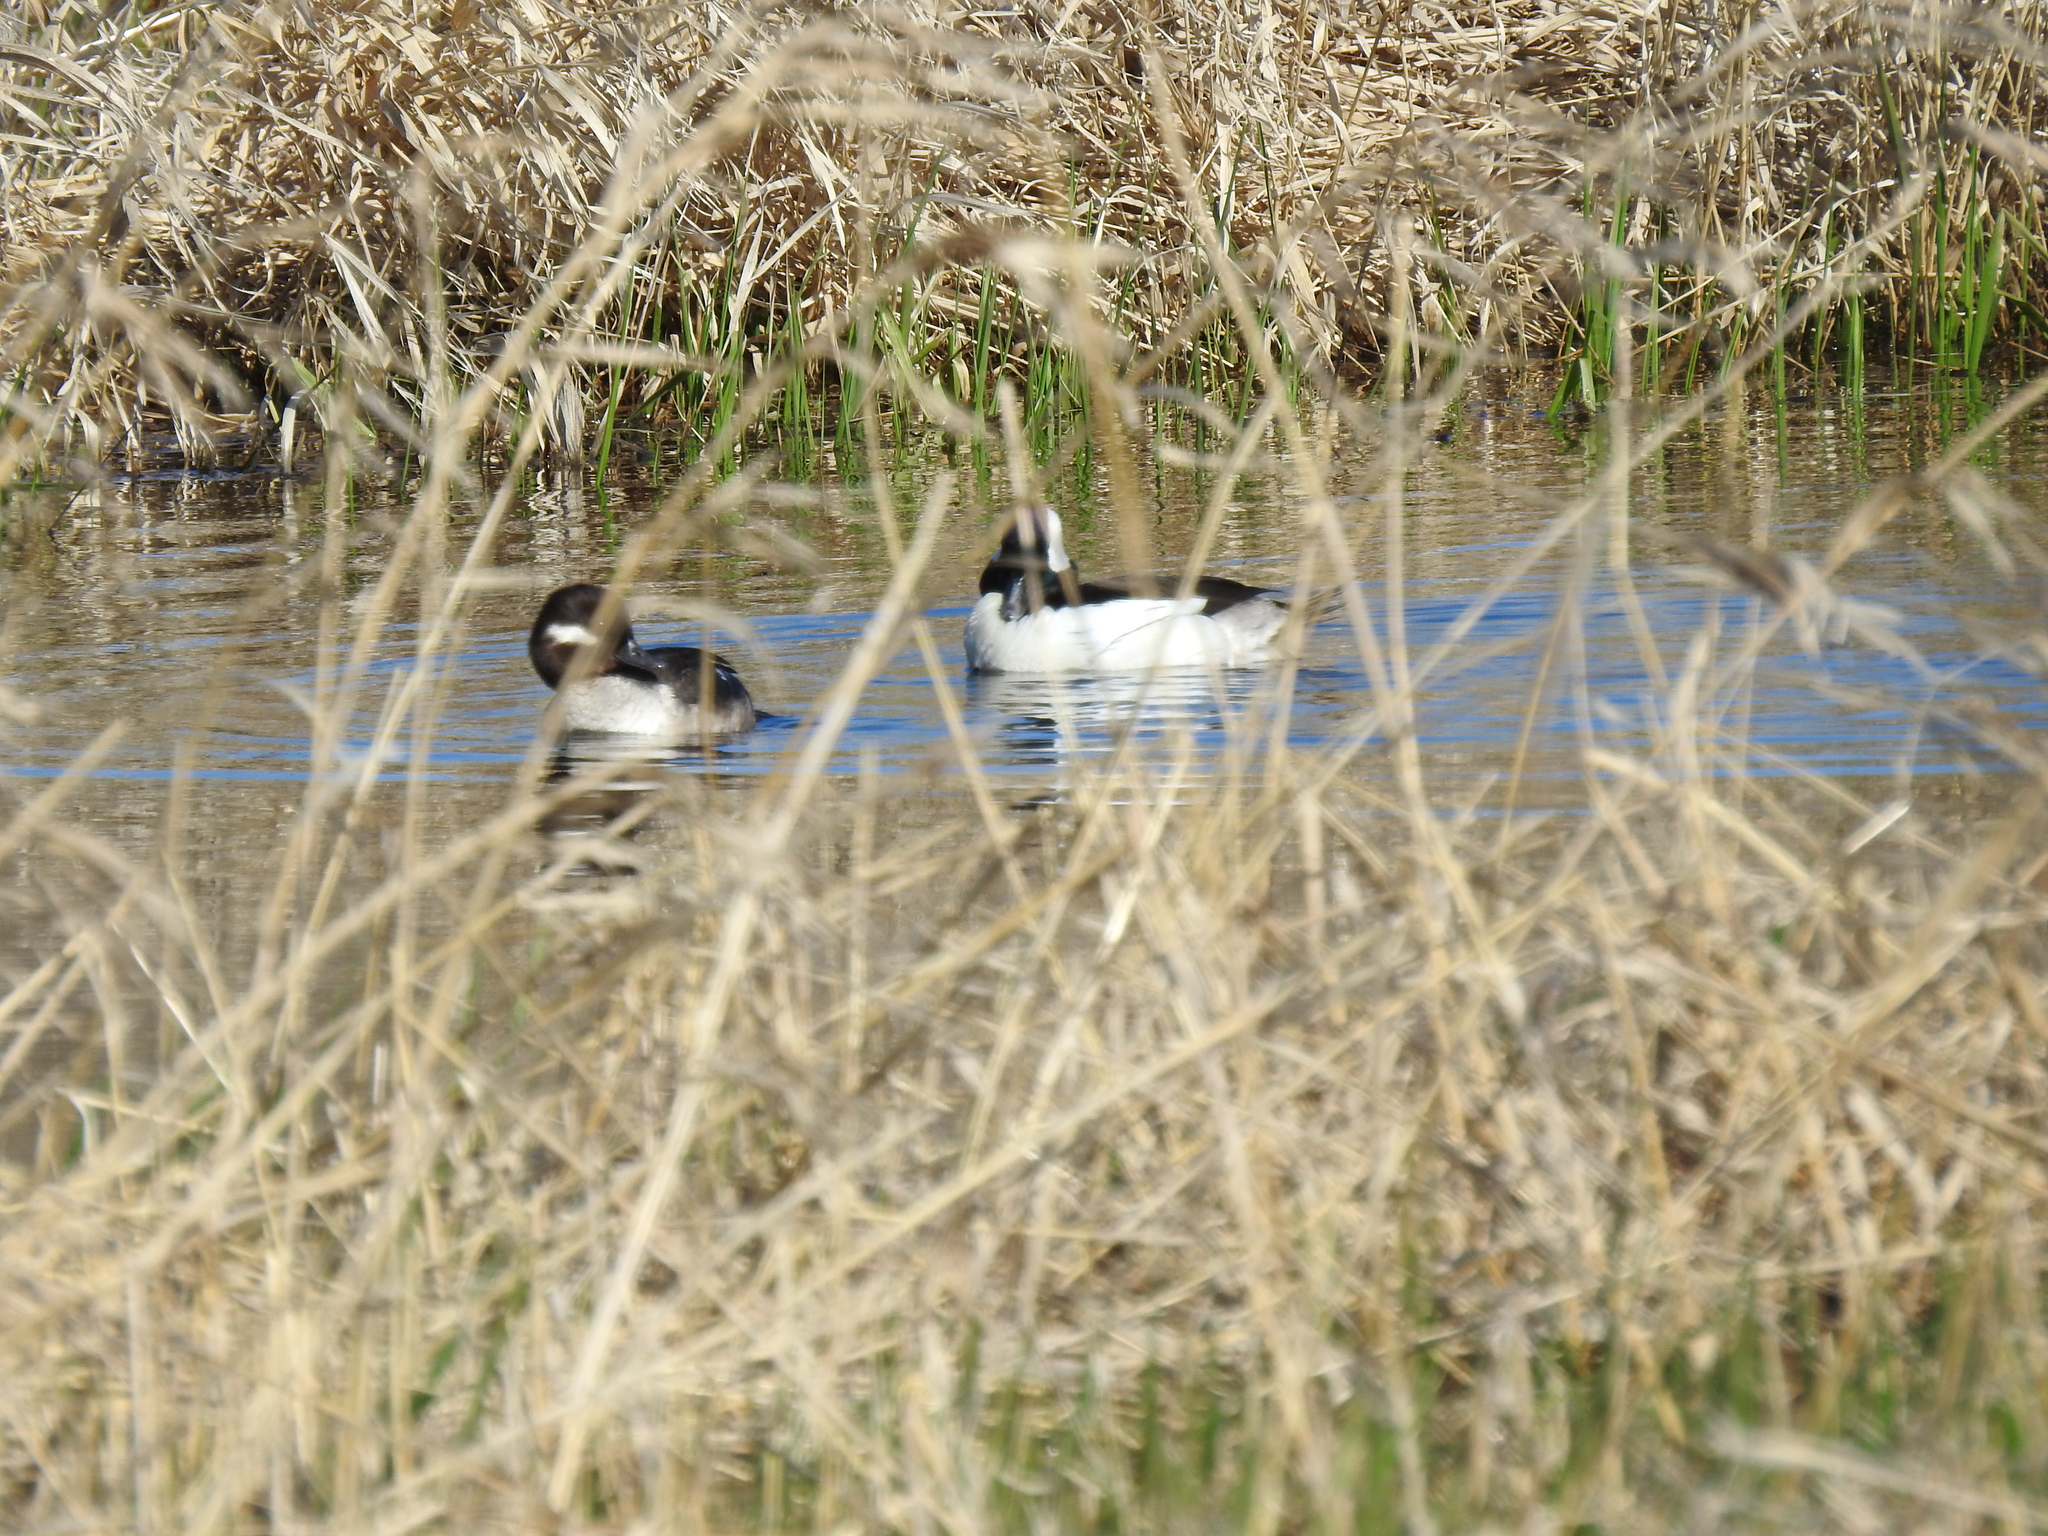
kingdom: Animalia
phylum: Chordata
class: Aves
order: Anseriformes
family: Anatidae
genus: Bucephala
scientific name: Bucephala albeola
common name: Bufflehead
